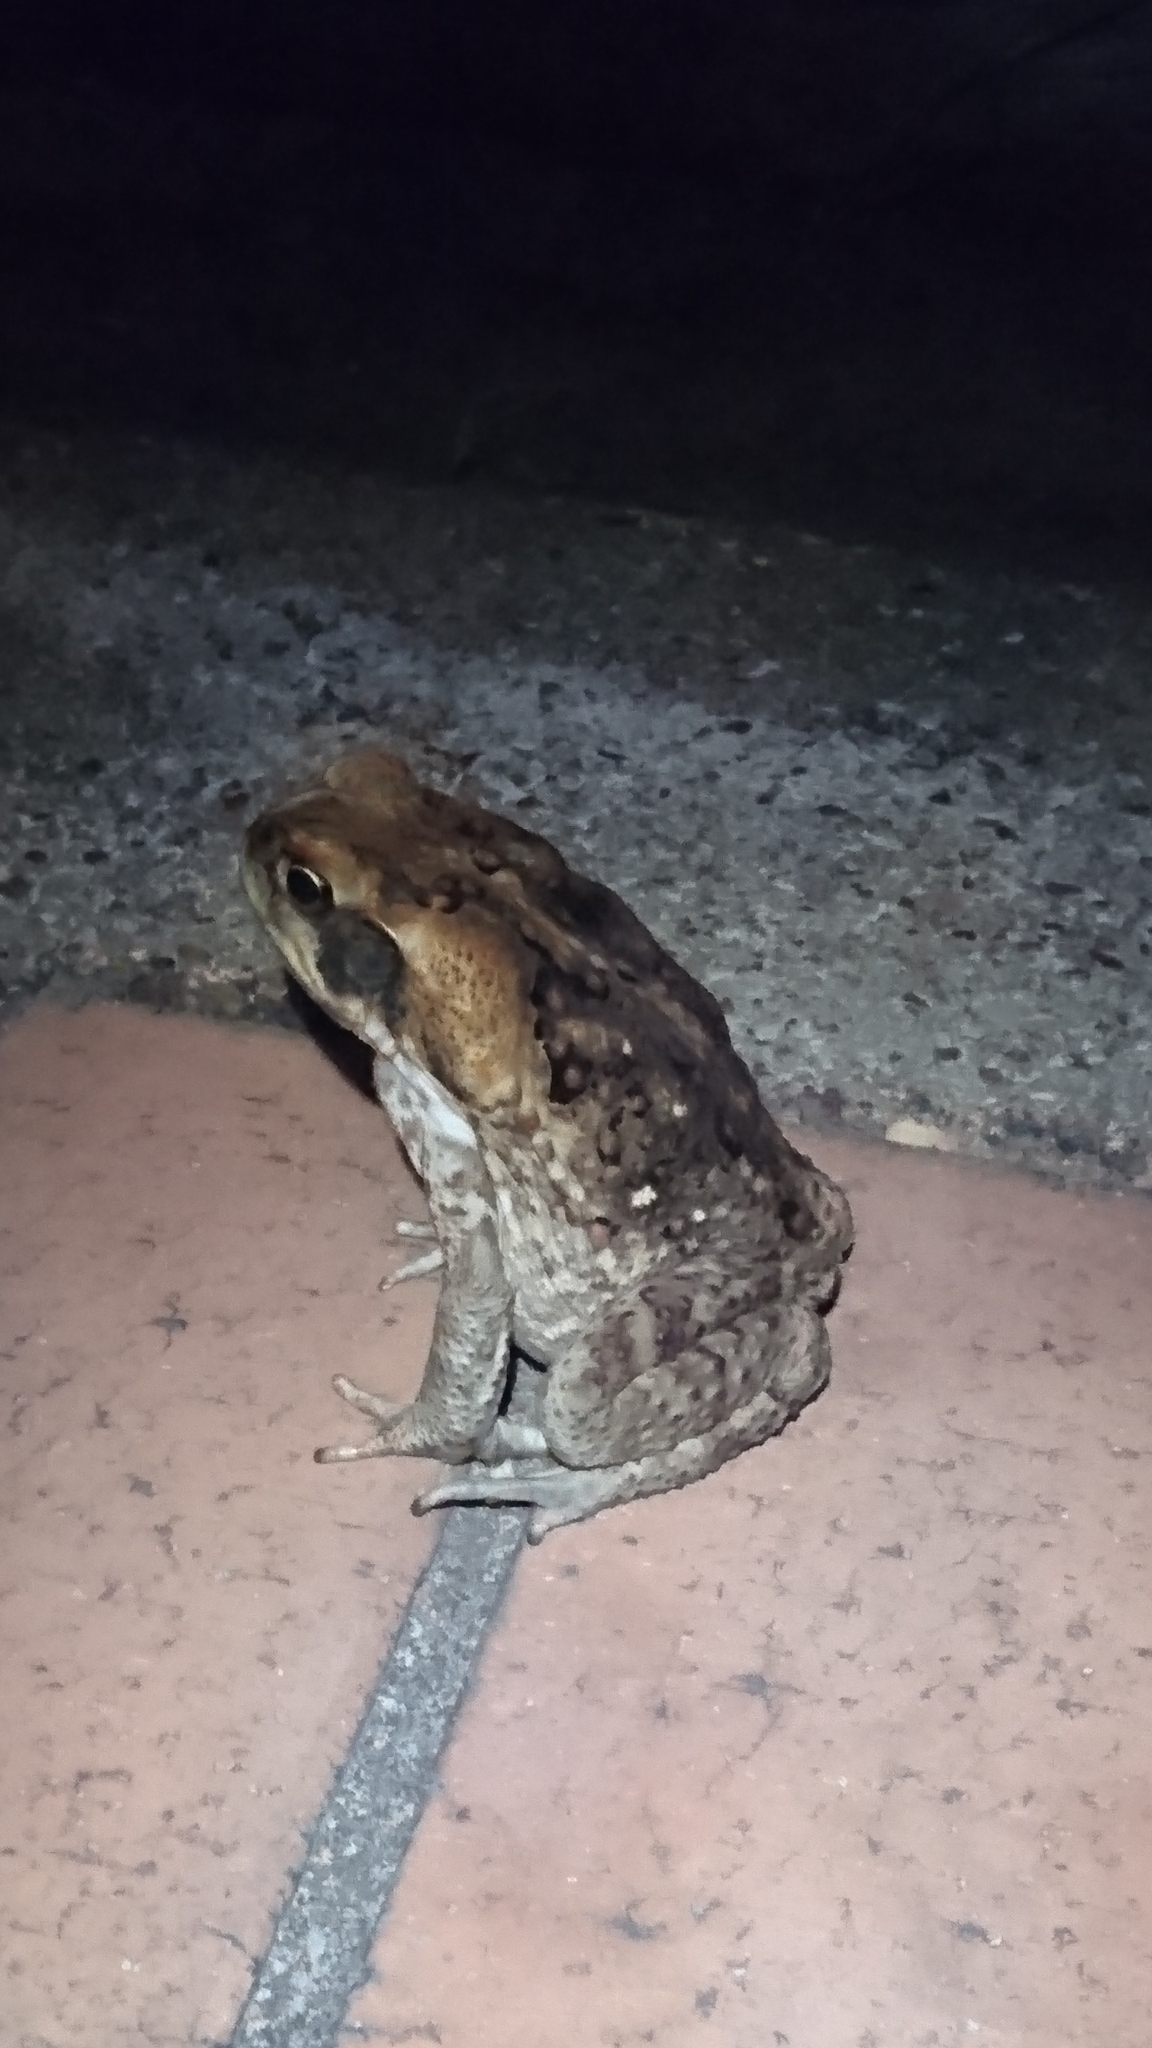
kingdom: Animalia
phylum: Chordata
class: Amphibia
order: Anura
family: Bufonidae
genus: Rhinella
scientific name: Rhinella marina
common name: Cane toad
